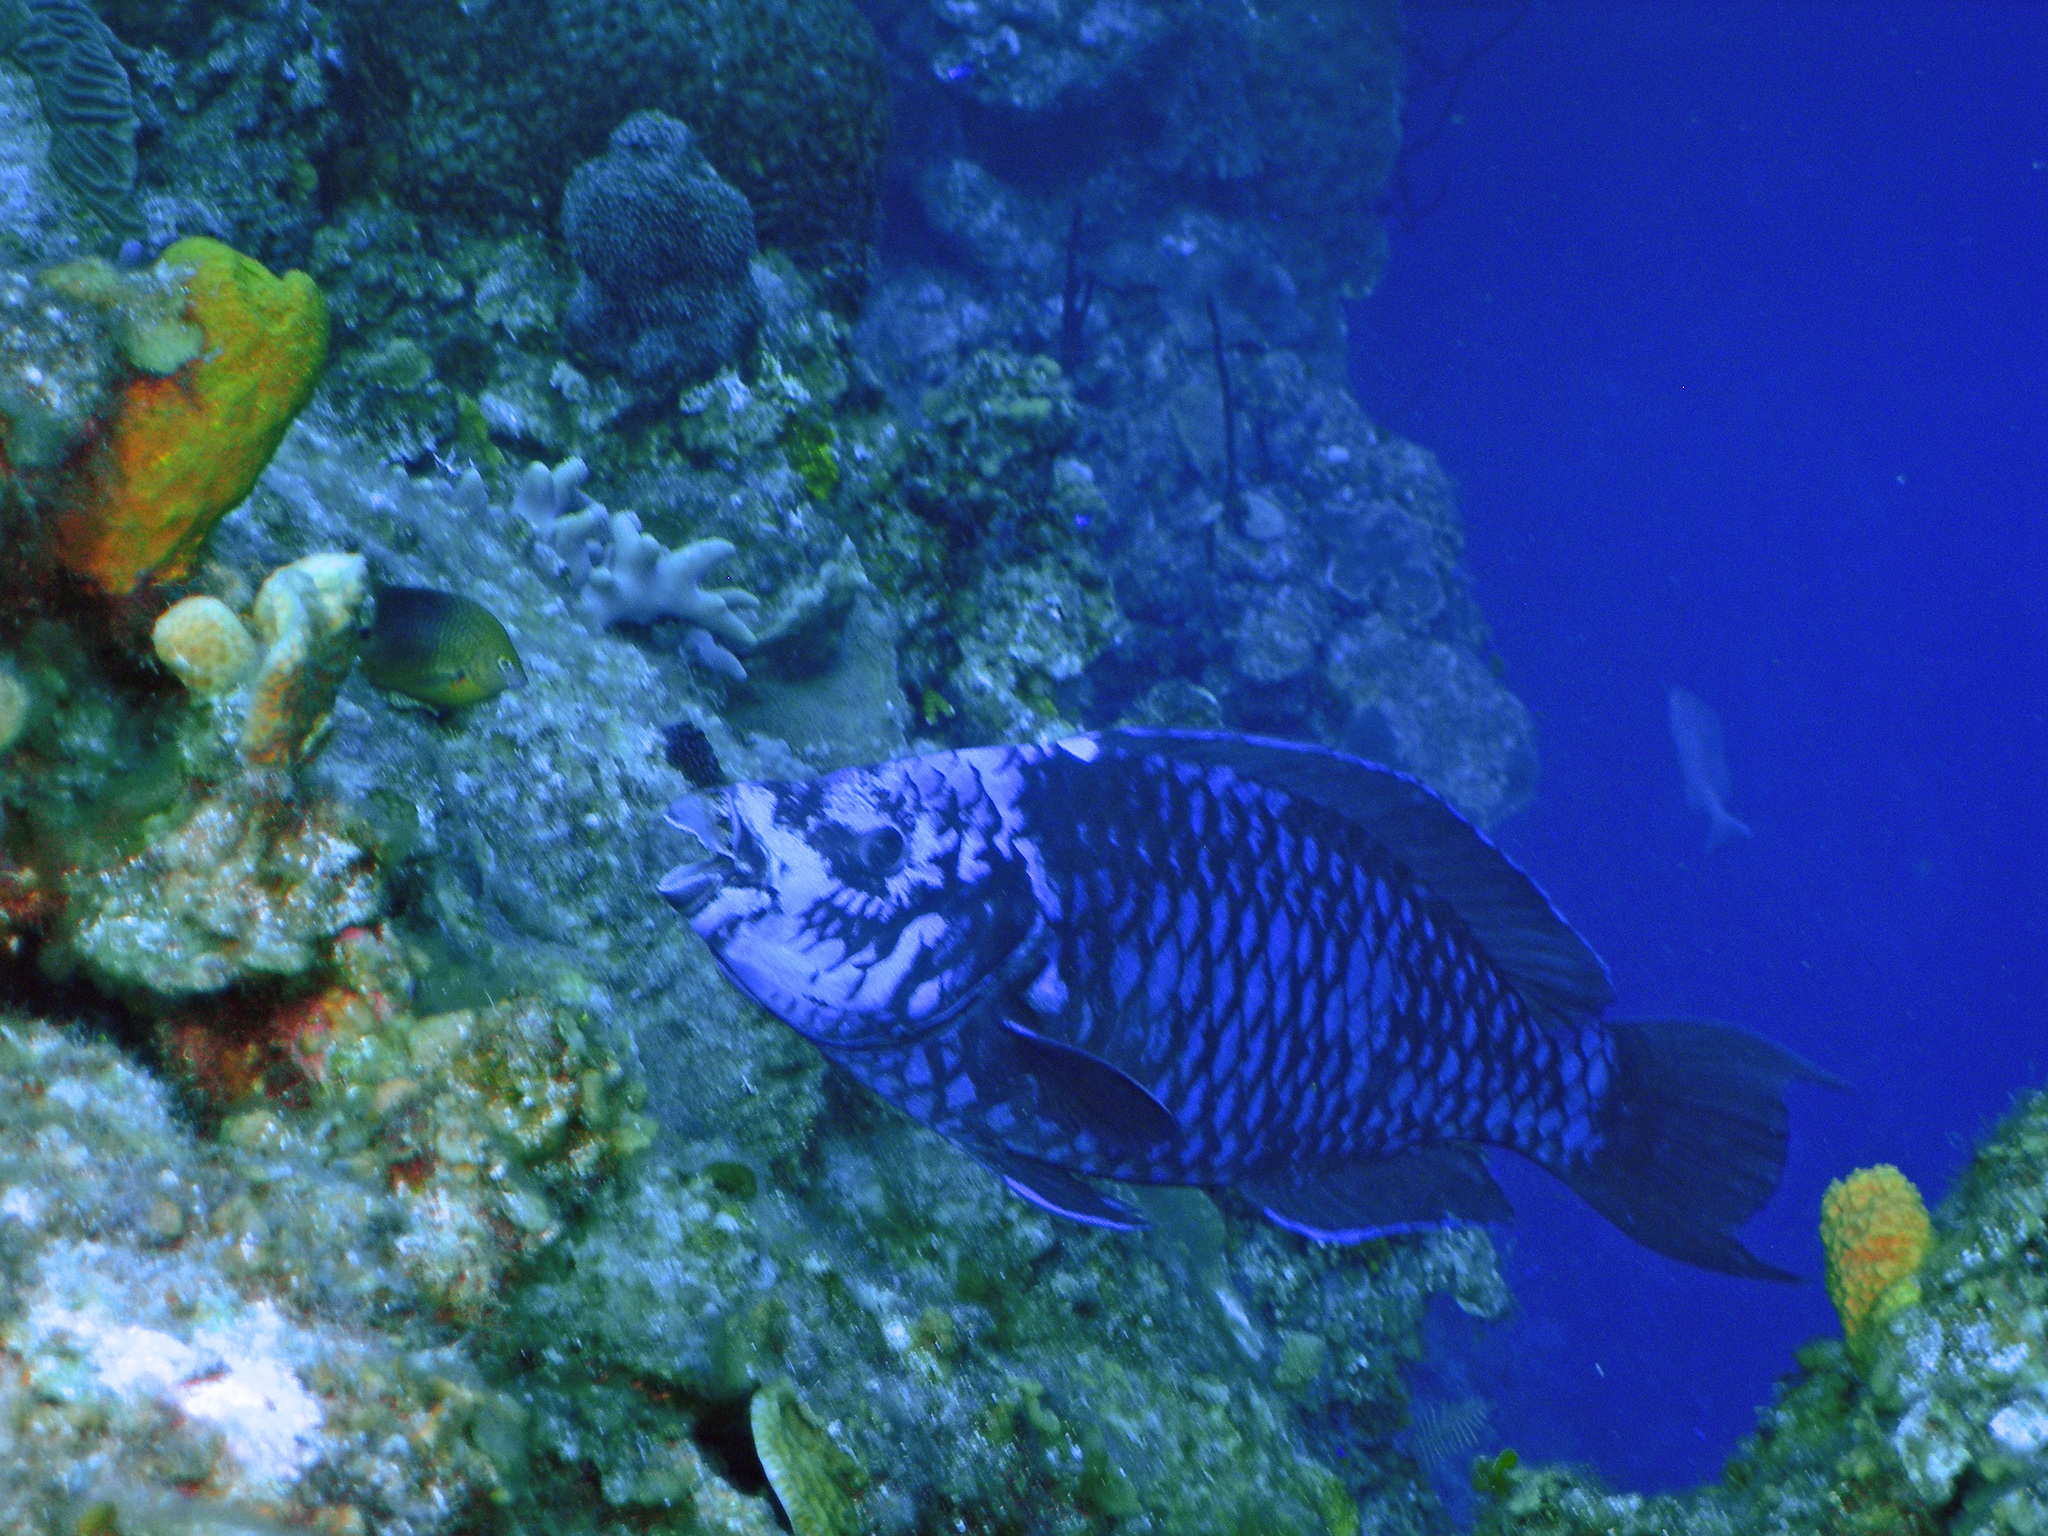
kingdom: Animalia
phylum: Chordata
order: Perciformes
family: Scaridae
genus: Scarus
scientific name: Scarus coelestinus
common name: Midnight parrotfish
